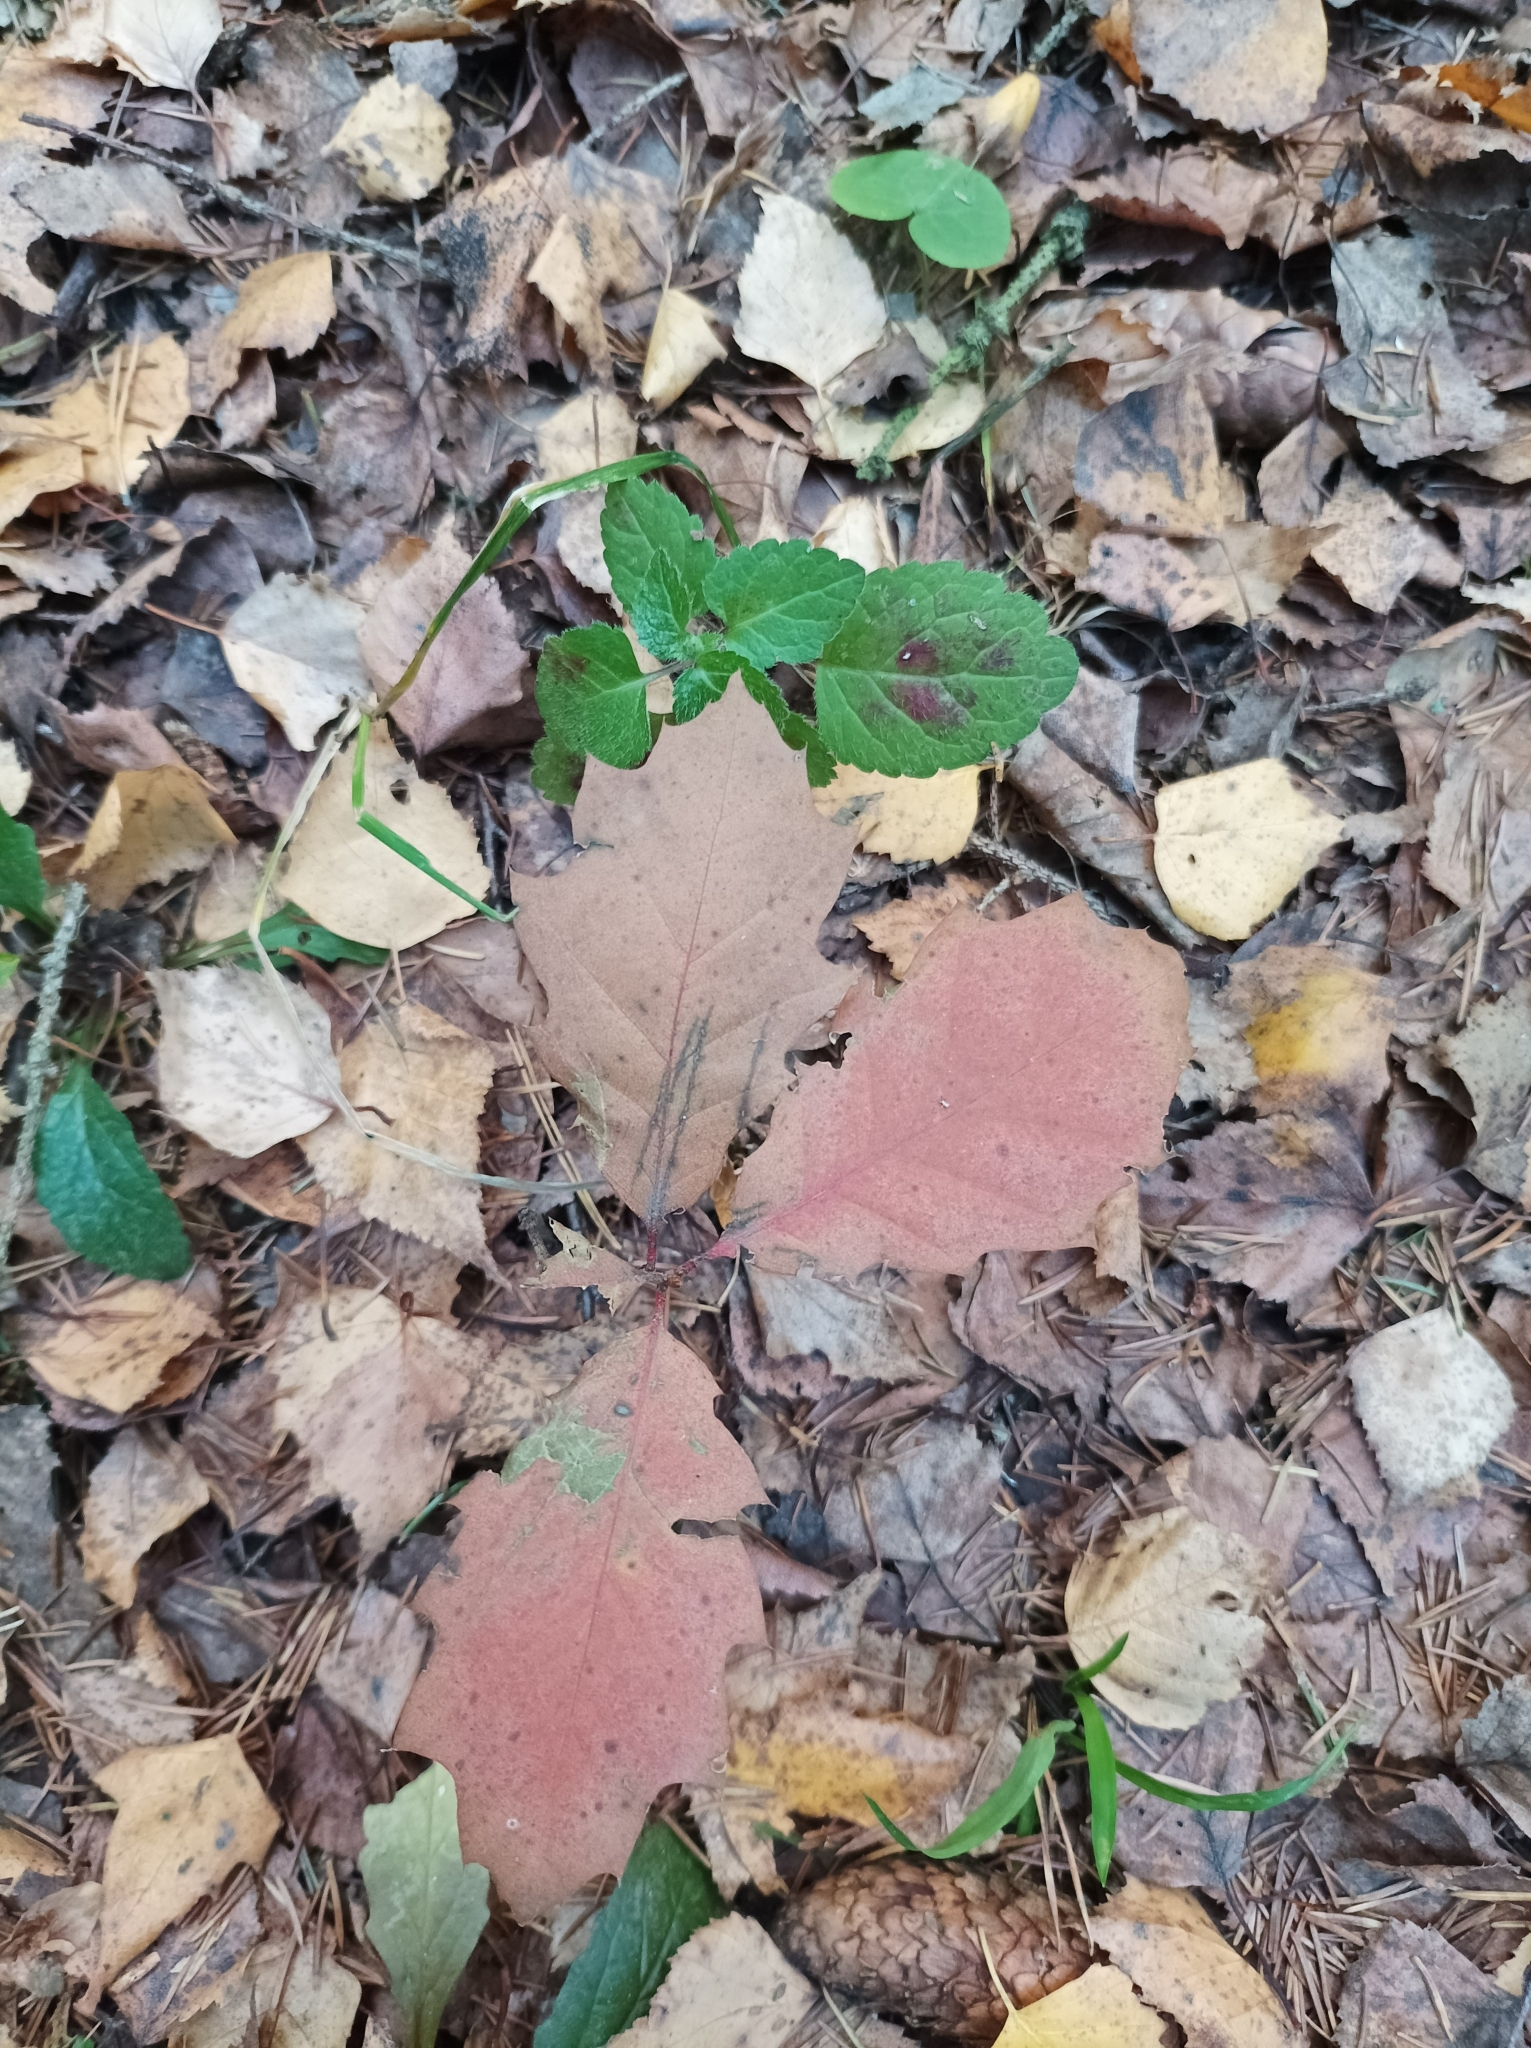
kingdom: Plantae
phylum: Tracheophyta
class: Magnoliopsida
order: Fagales
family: Fagaceae
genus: Quercus
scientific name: Quercus rubra
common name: Red oak
